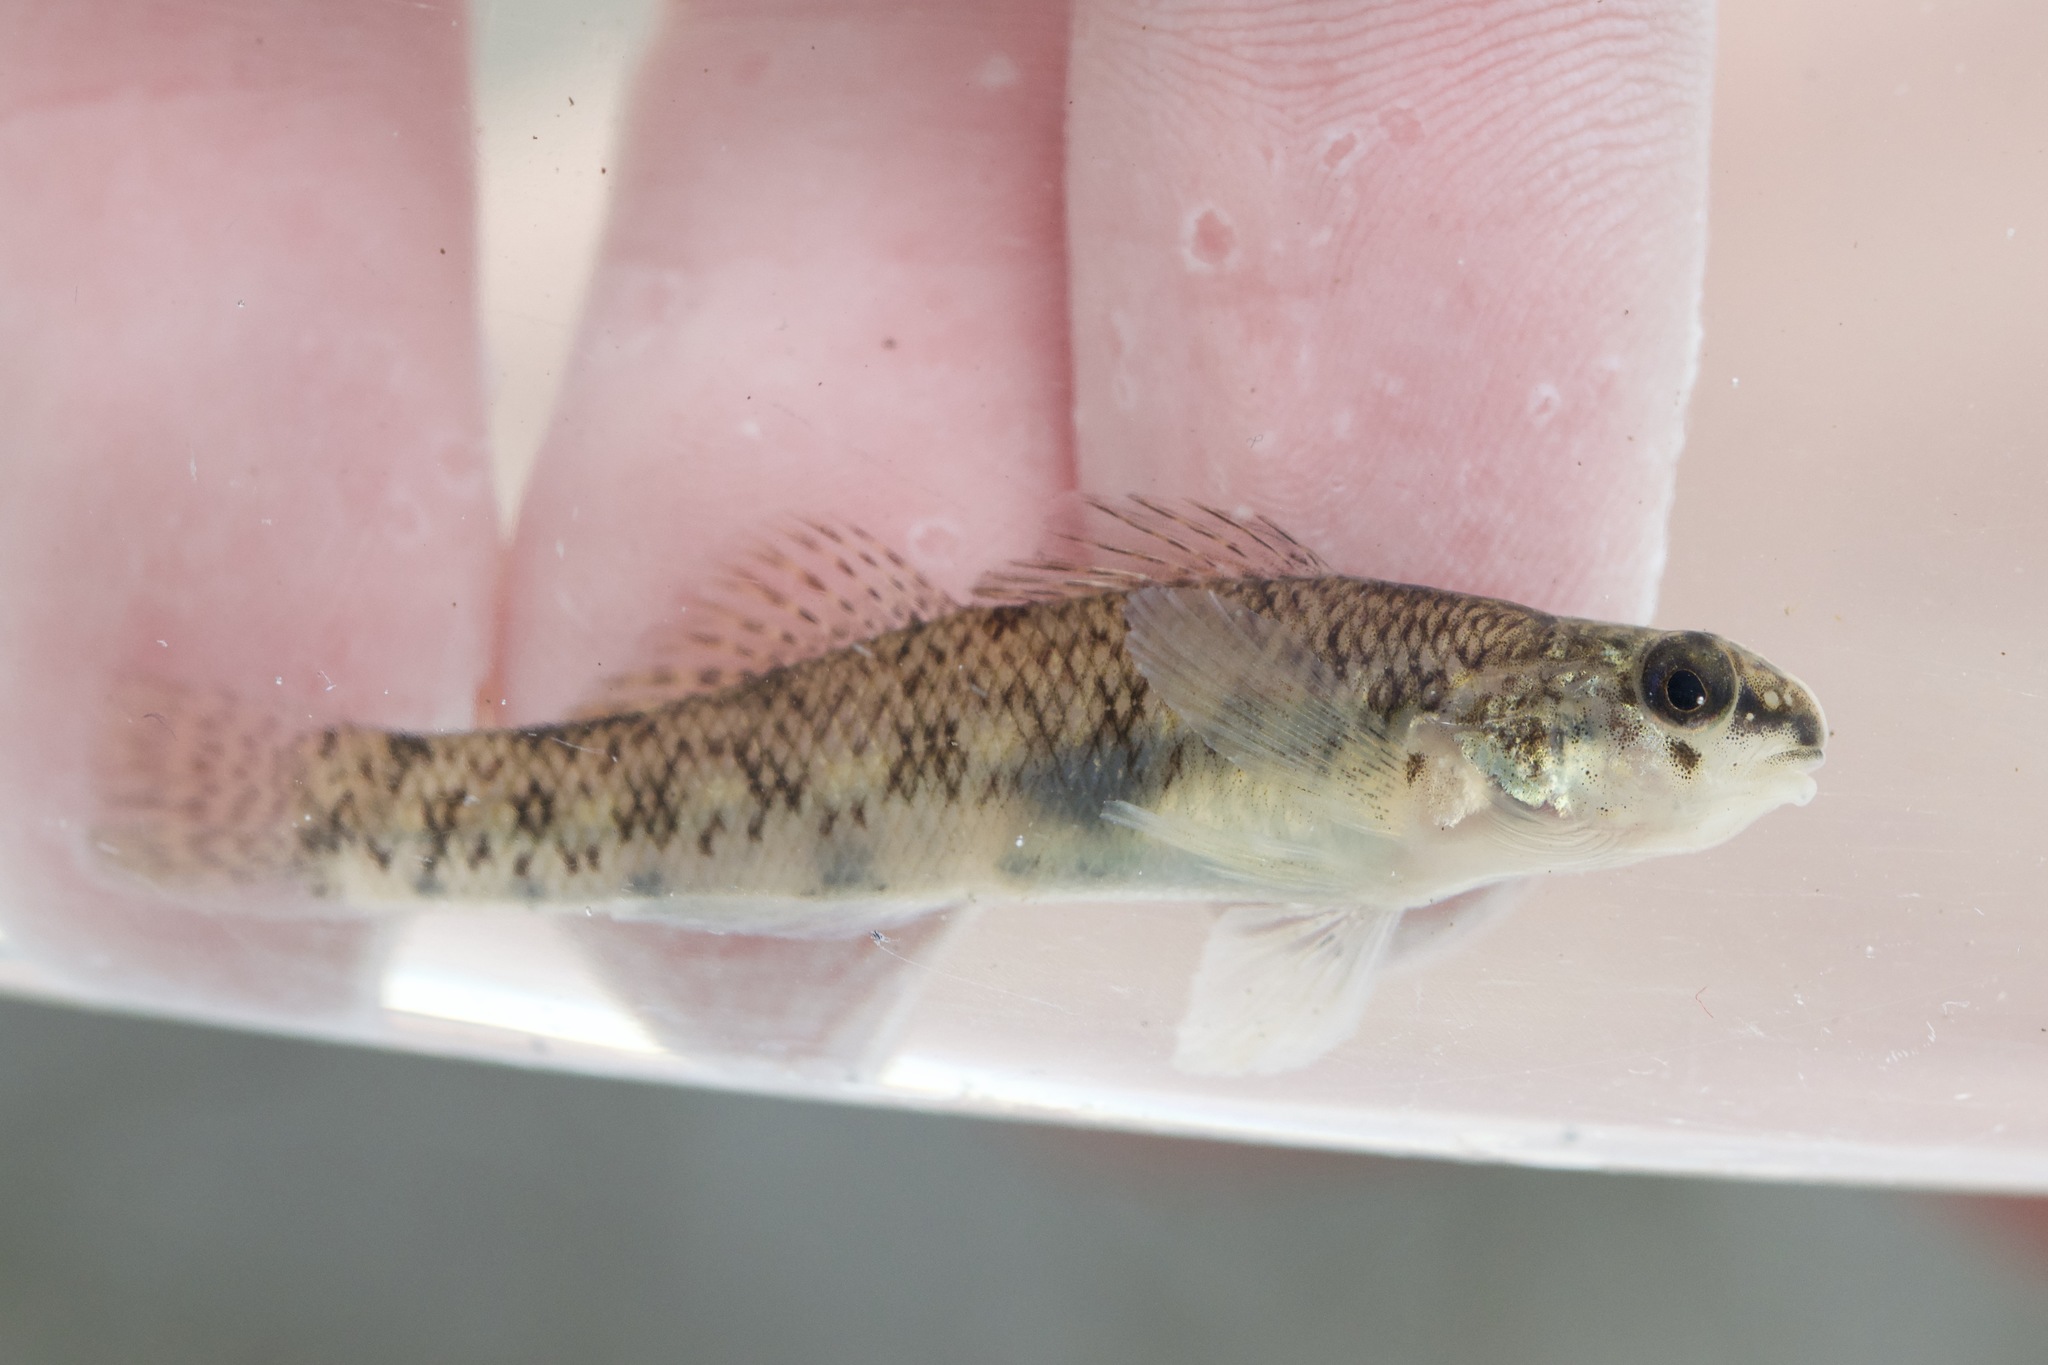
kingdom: Animalia
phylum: Chordata
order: Perciformes
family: Percidae
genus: Etheostoma
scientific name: Etheostoma nigrum
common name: Johnny darter
